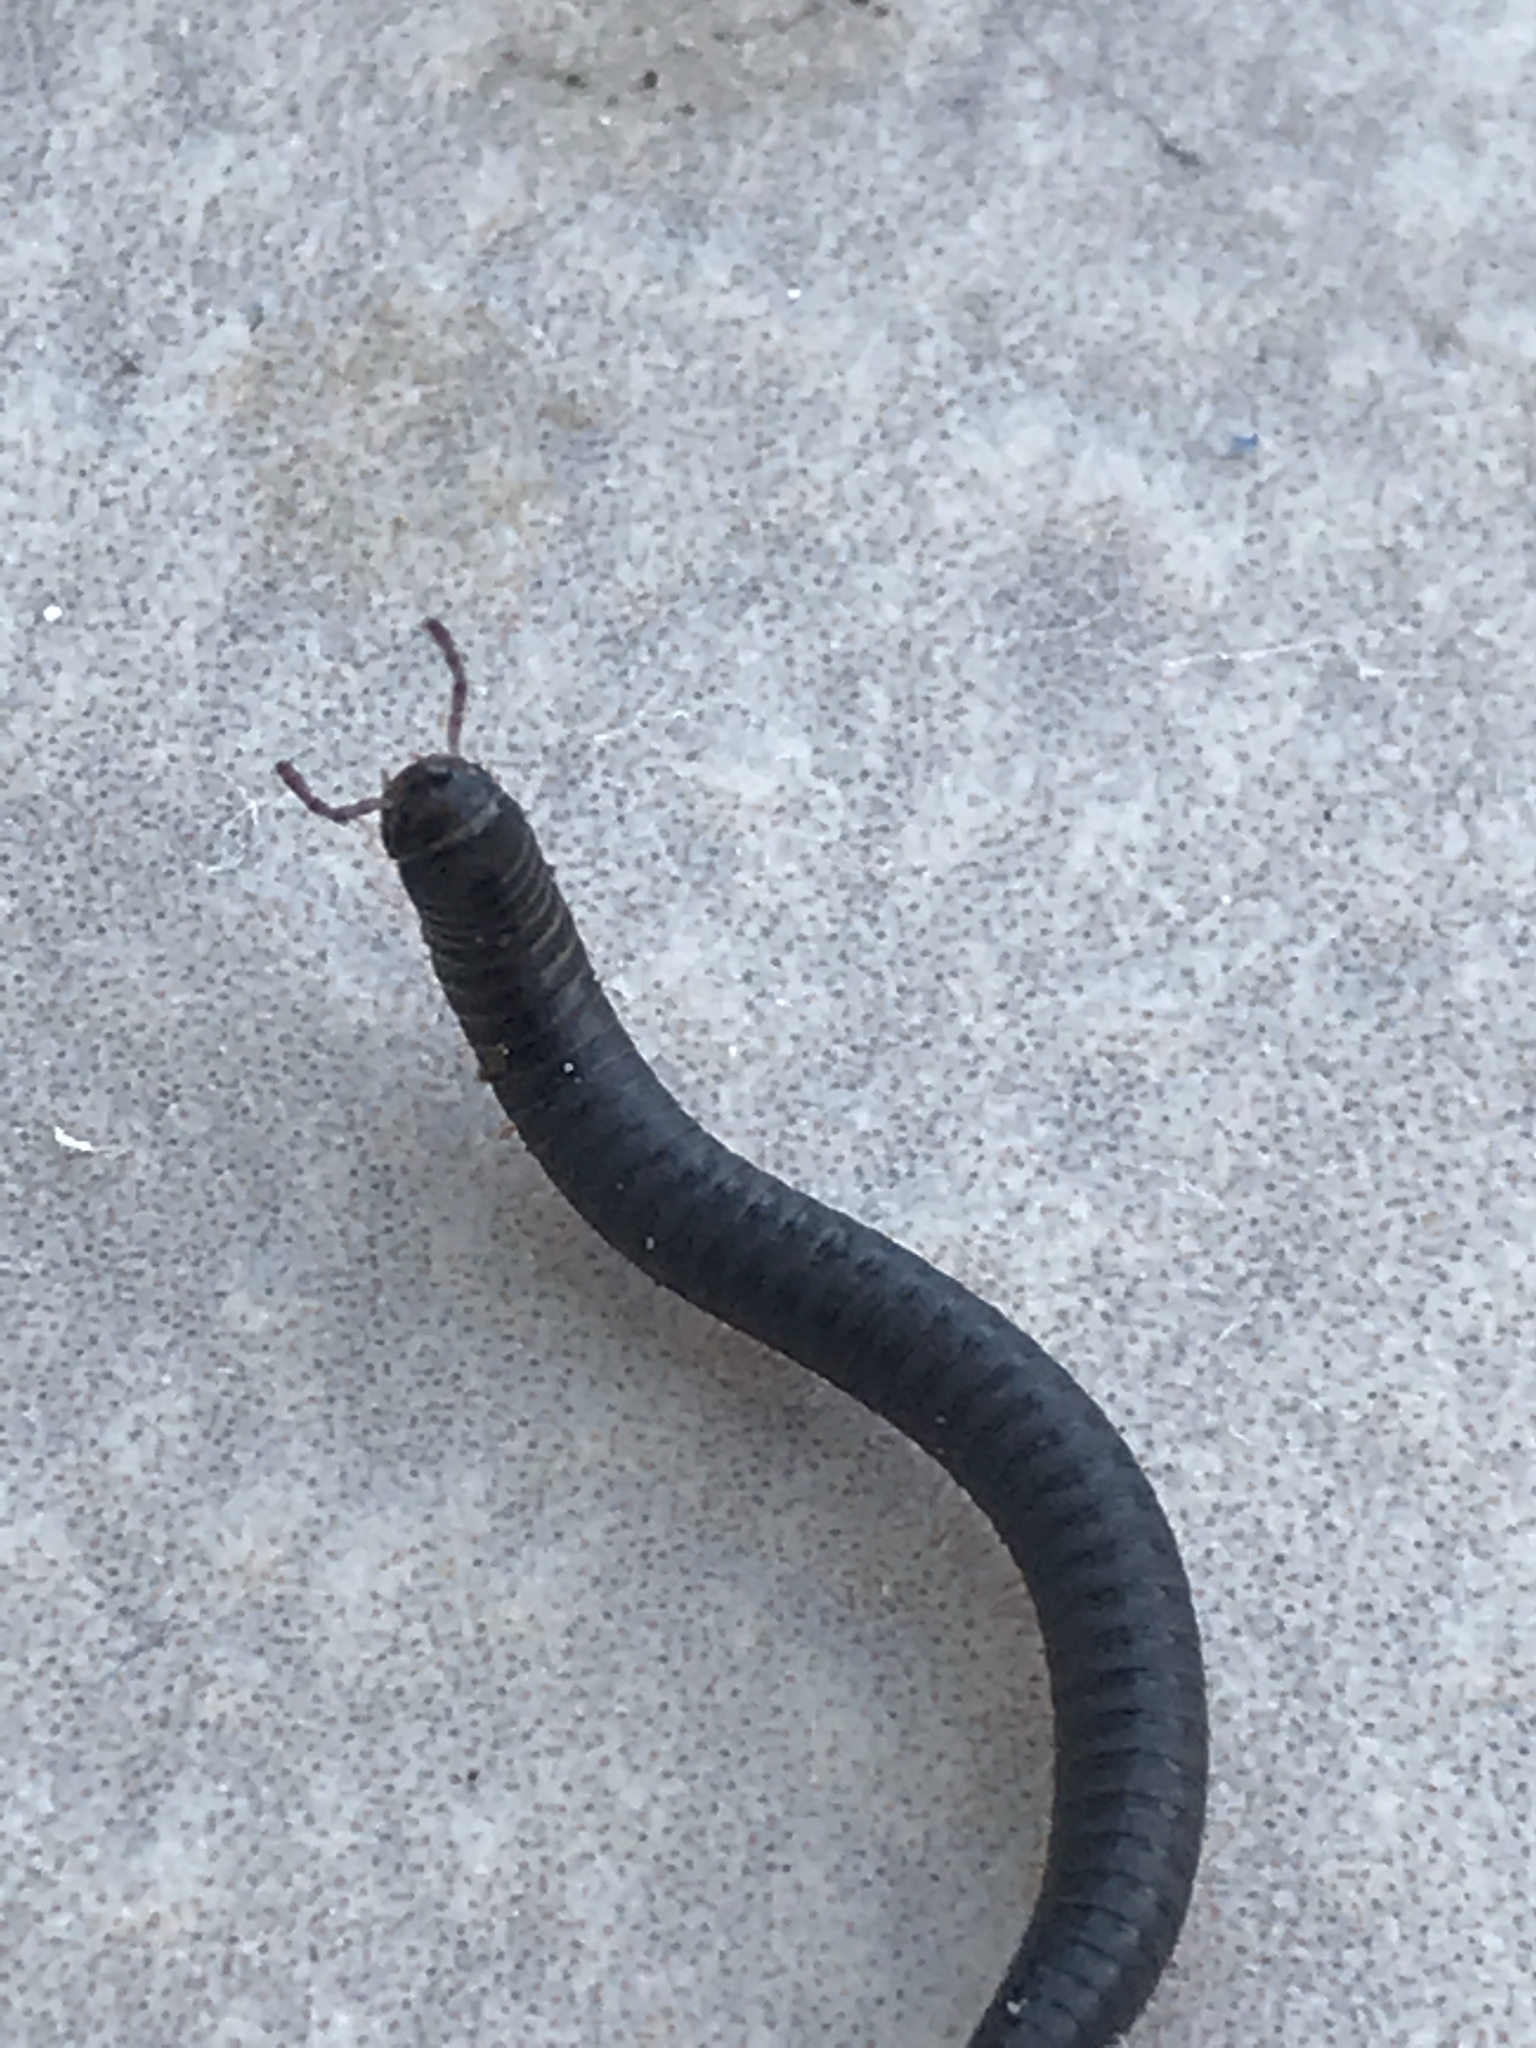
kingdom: Animalia
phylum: Arthropoda
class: Diplopoda
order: Julida
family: Julidae
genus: Ommatoiulus
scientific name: Ommatoiulus moreleti
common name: Portuguese millipede
